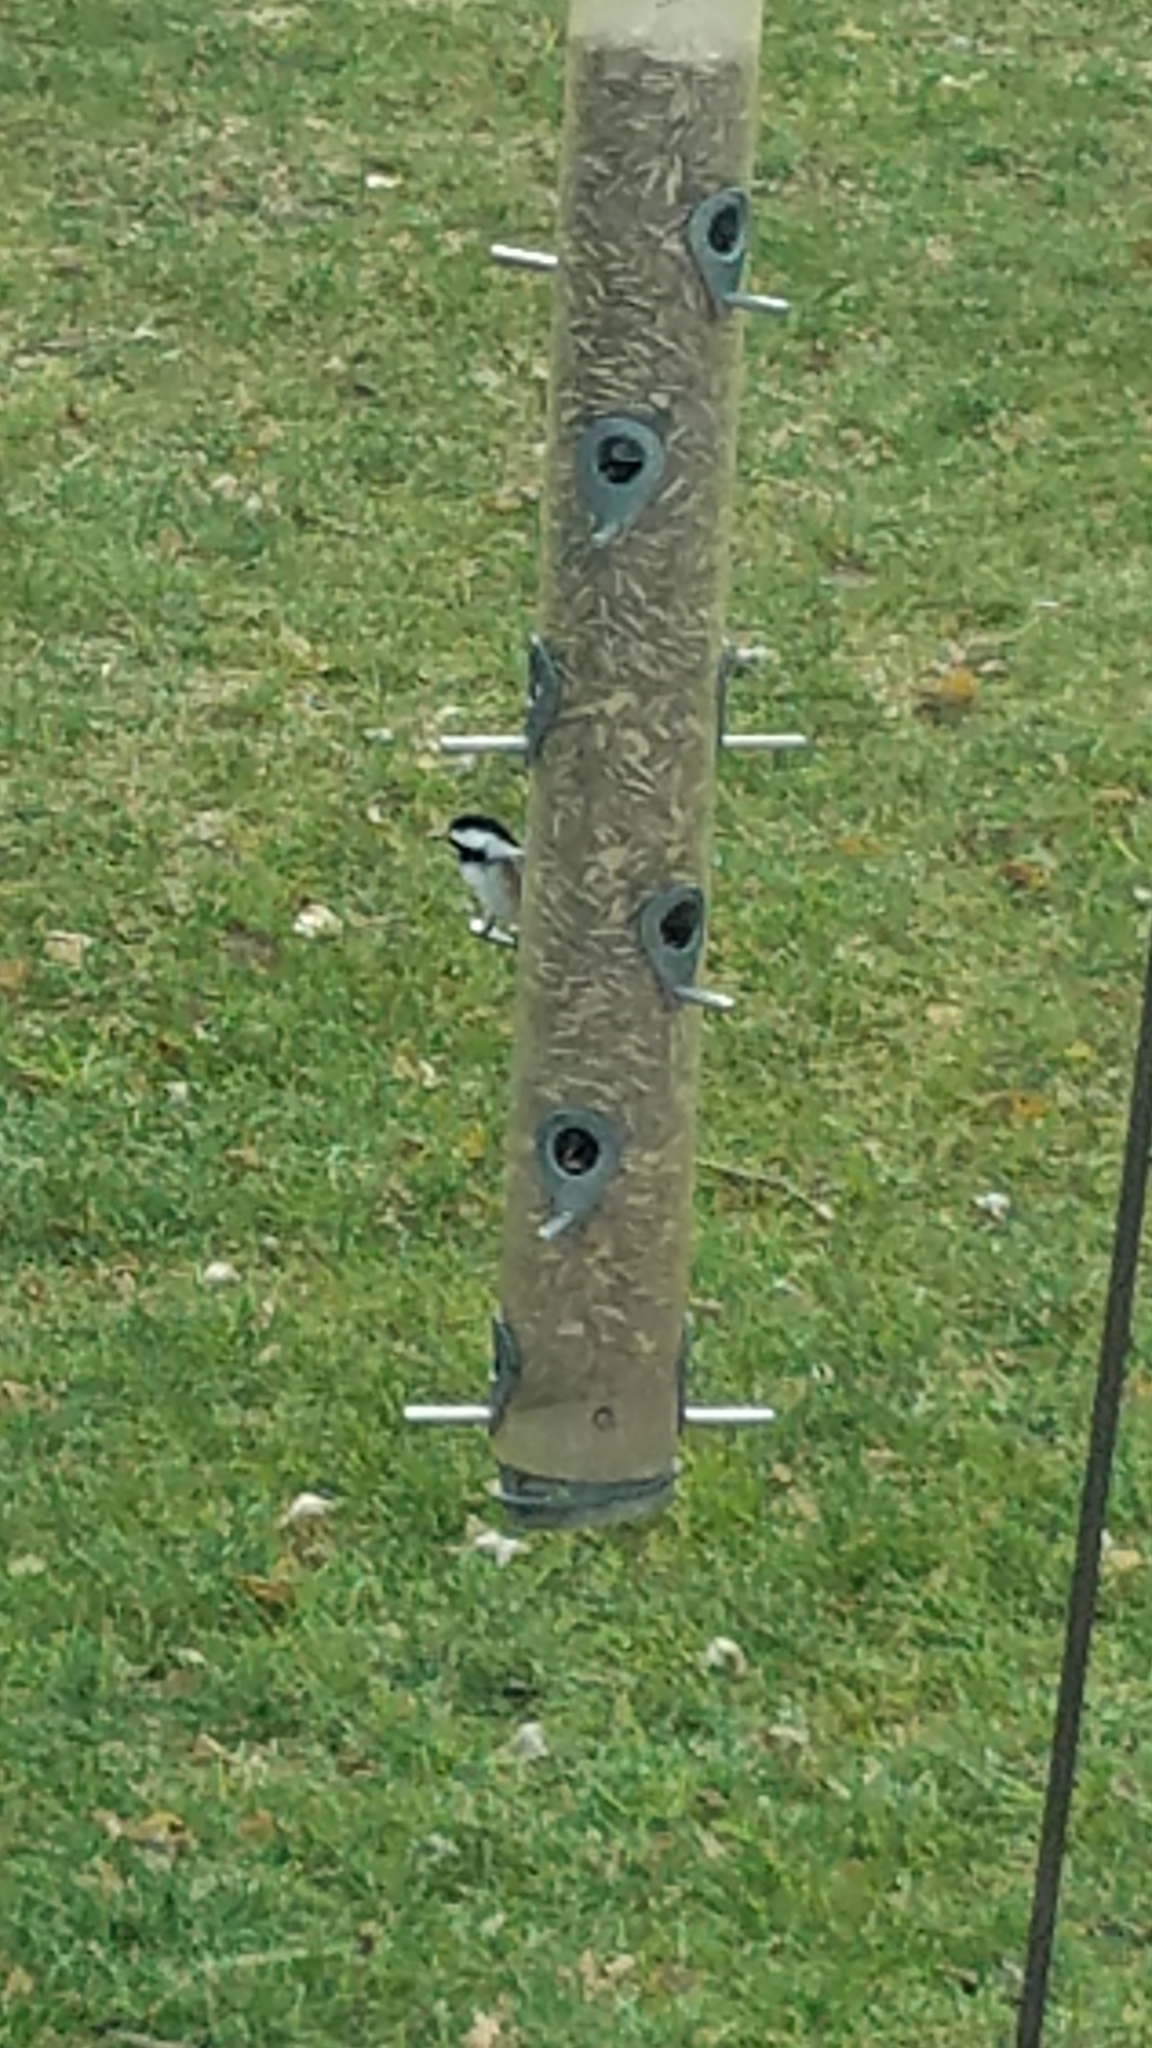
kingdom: Animalia
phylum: Chordata
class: Aves
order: Passeriformes
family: Paridae
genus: Poecile
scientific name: Poecile atricapillus
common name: Black-capped chickadee
